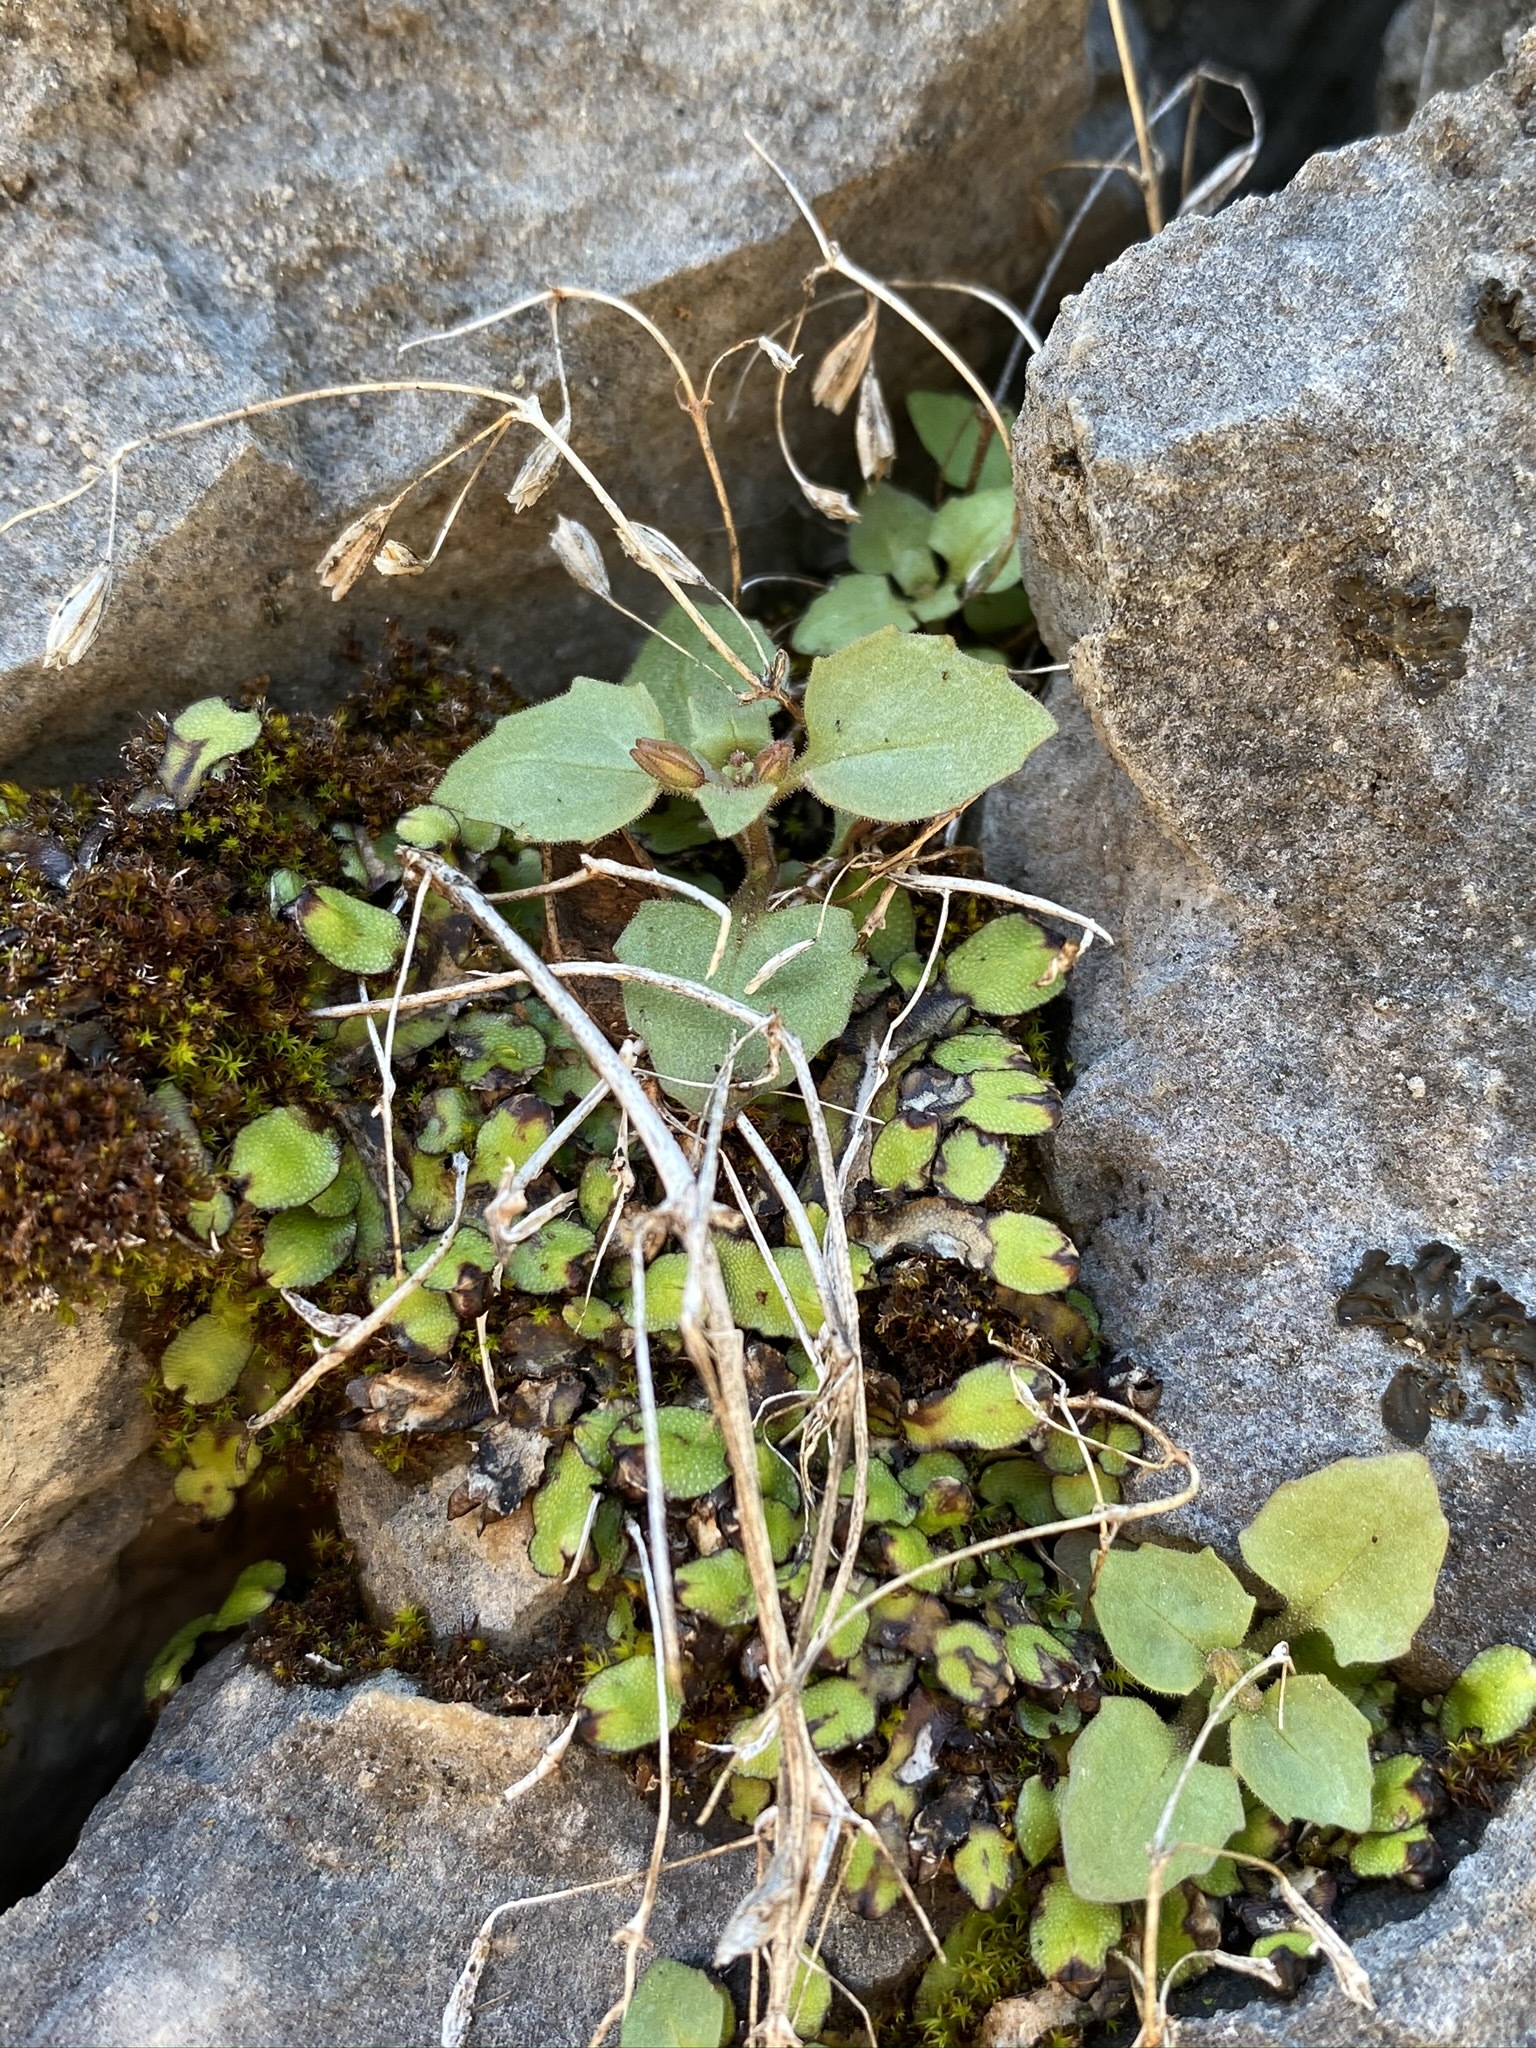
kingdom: Plantae
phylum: Tracheophyta
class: Magnoliopsida
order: Lamiales
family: Phrymaceae
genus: Erythranthe
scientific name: Erythranthe taylorii
